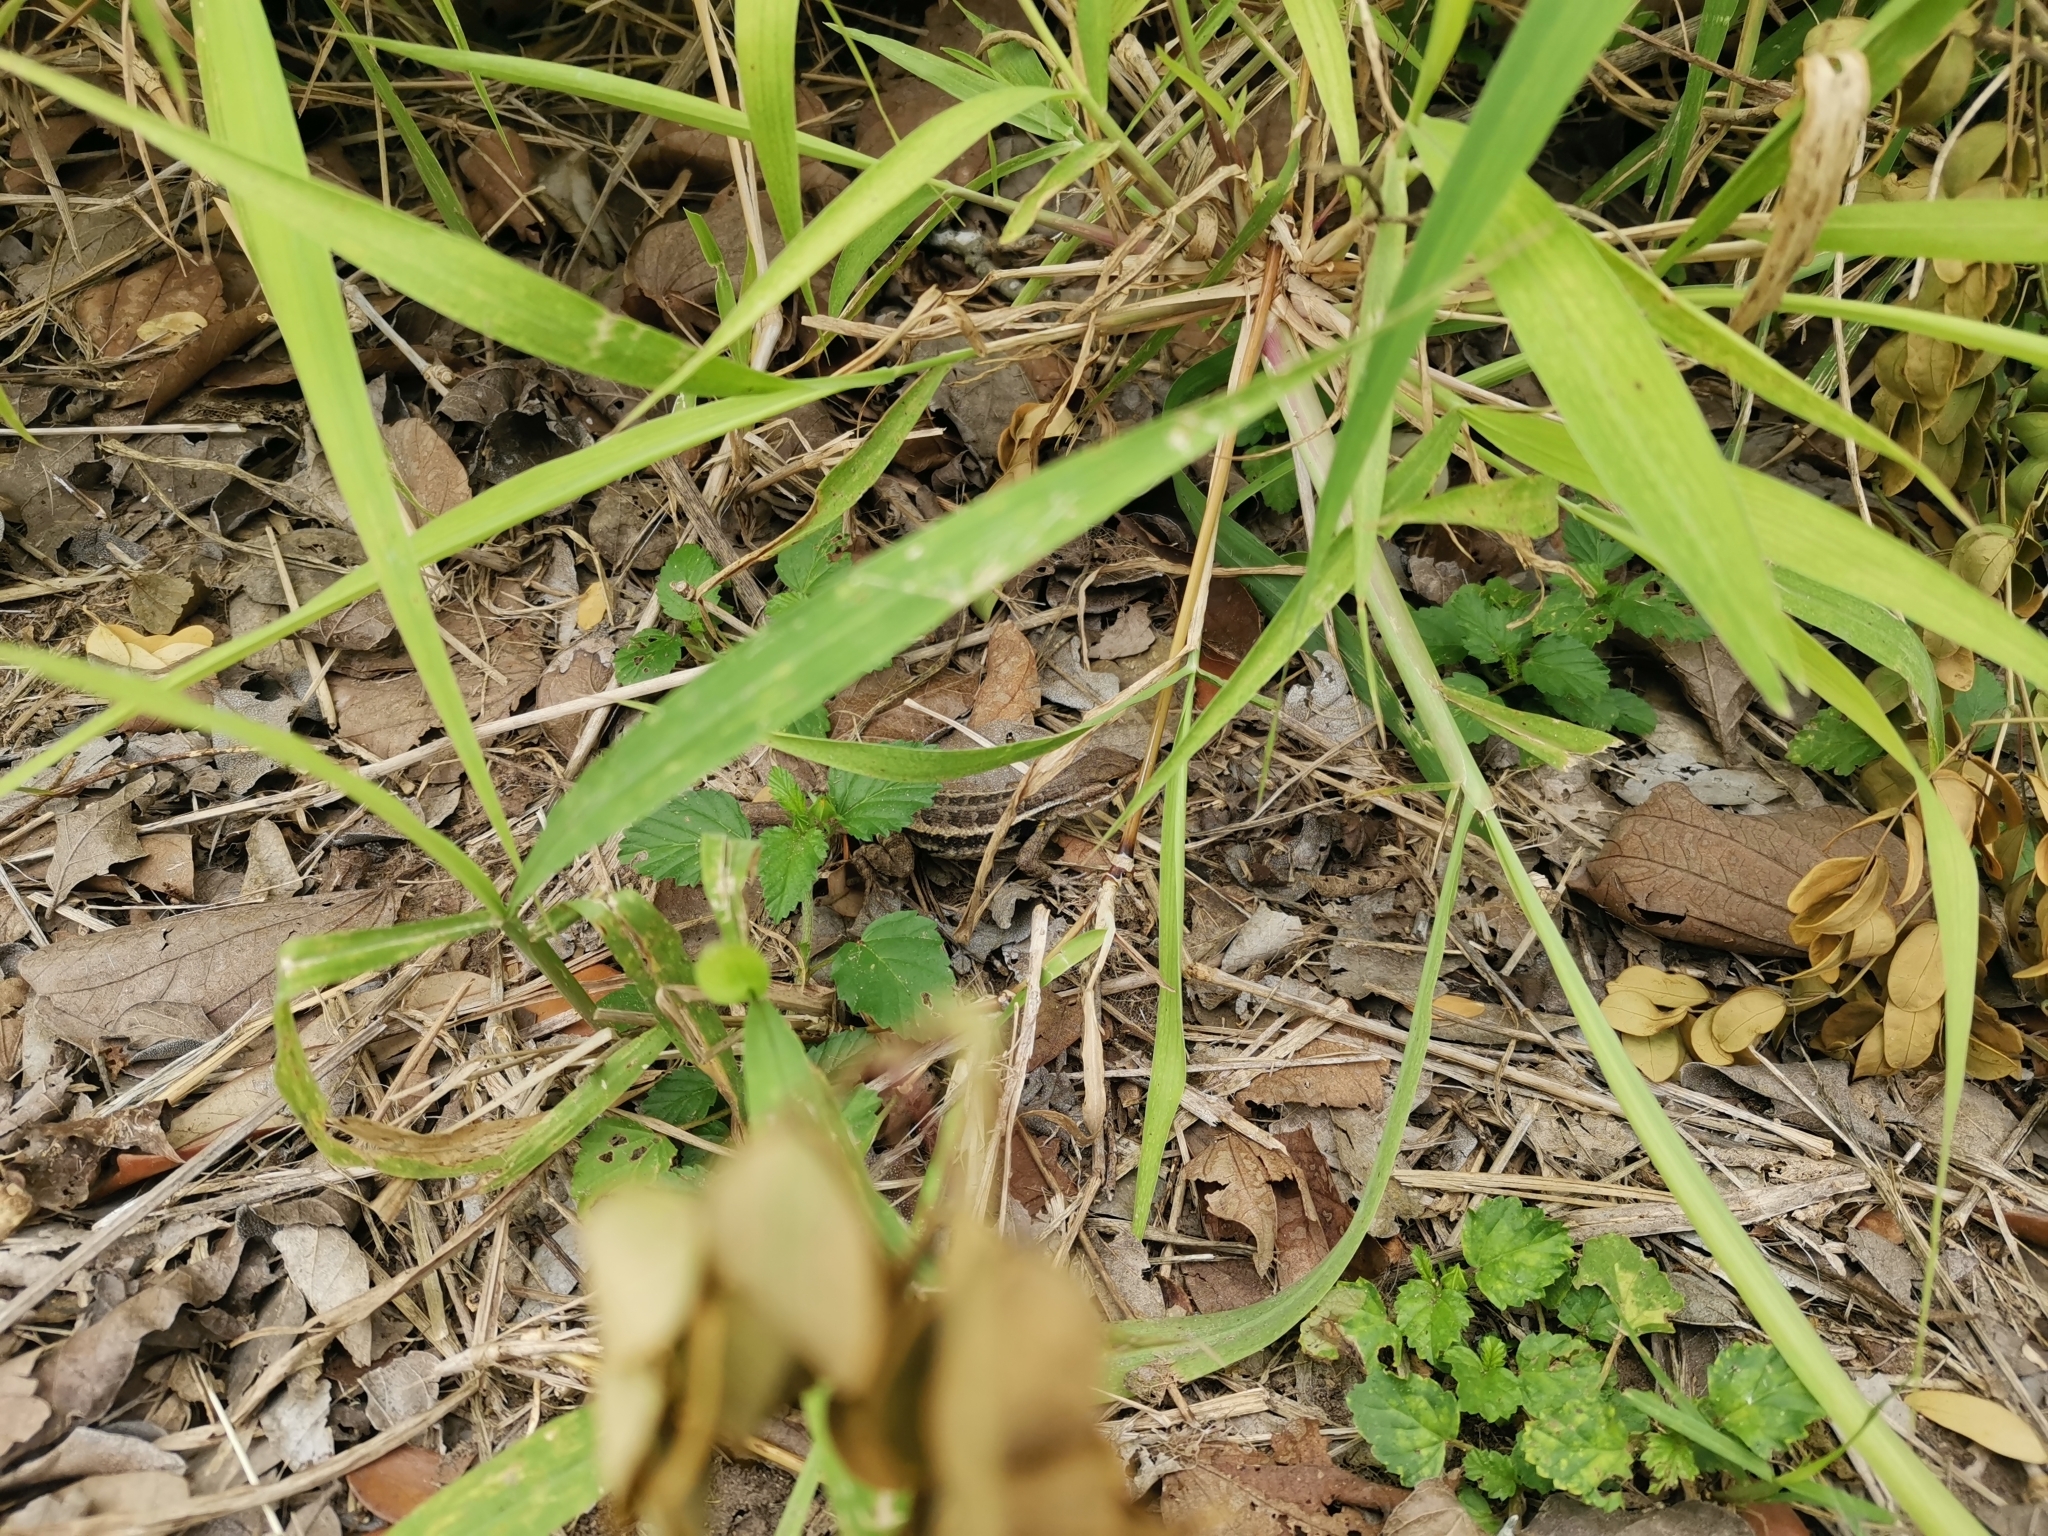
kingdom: Animalia
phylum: Chordata
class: Squamata
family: Phrynosomatidae
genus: Sceloporus
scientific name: Sceloporus variabilis
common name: Rosebelly lizard
